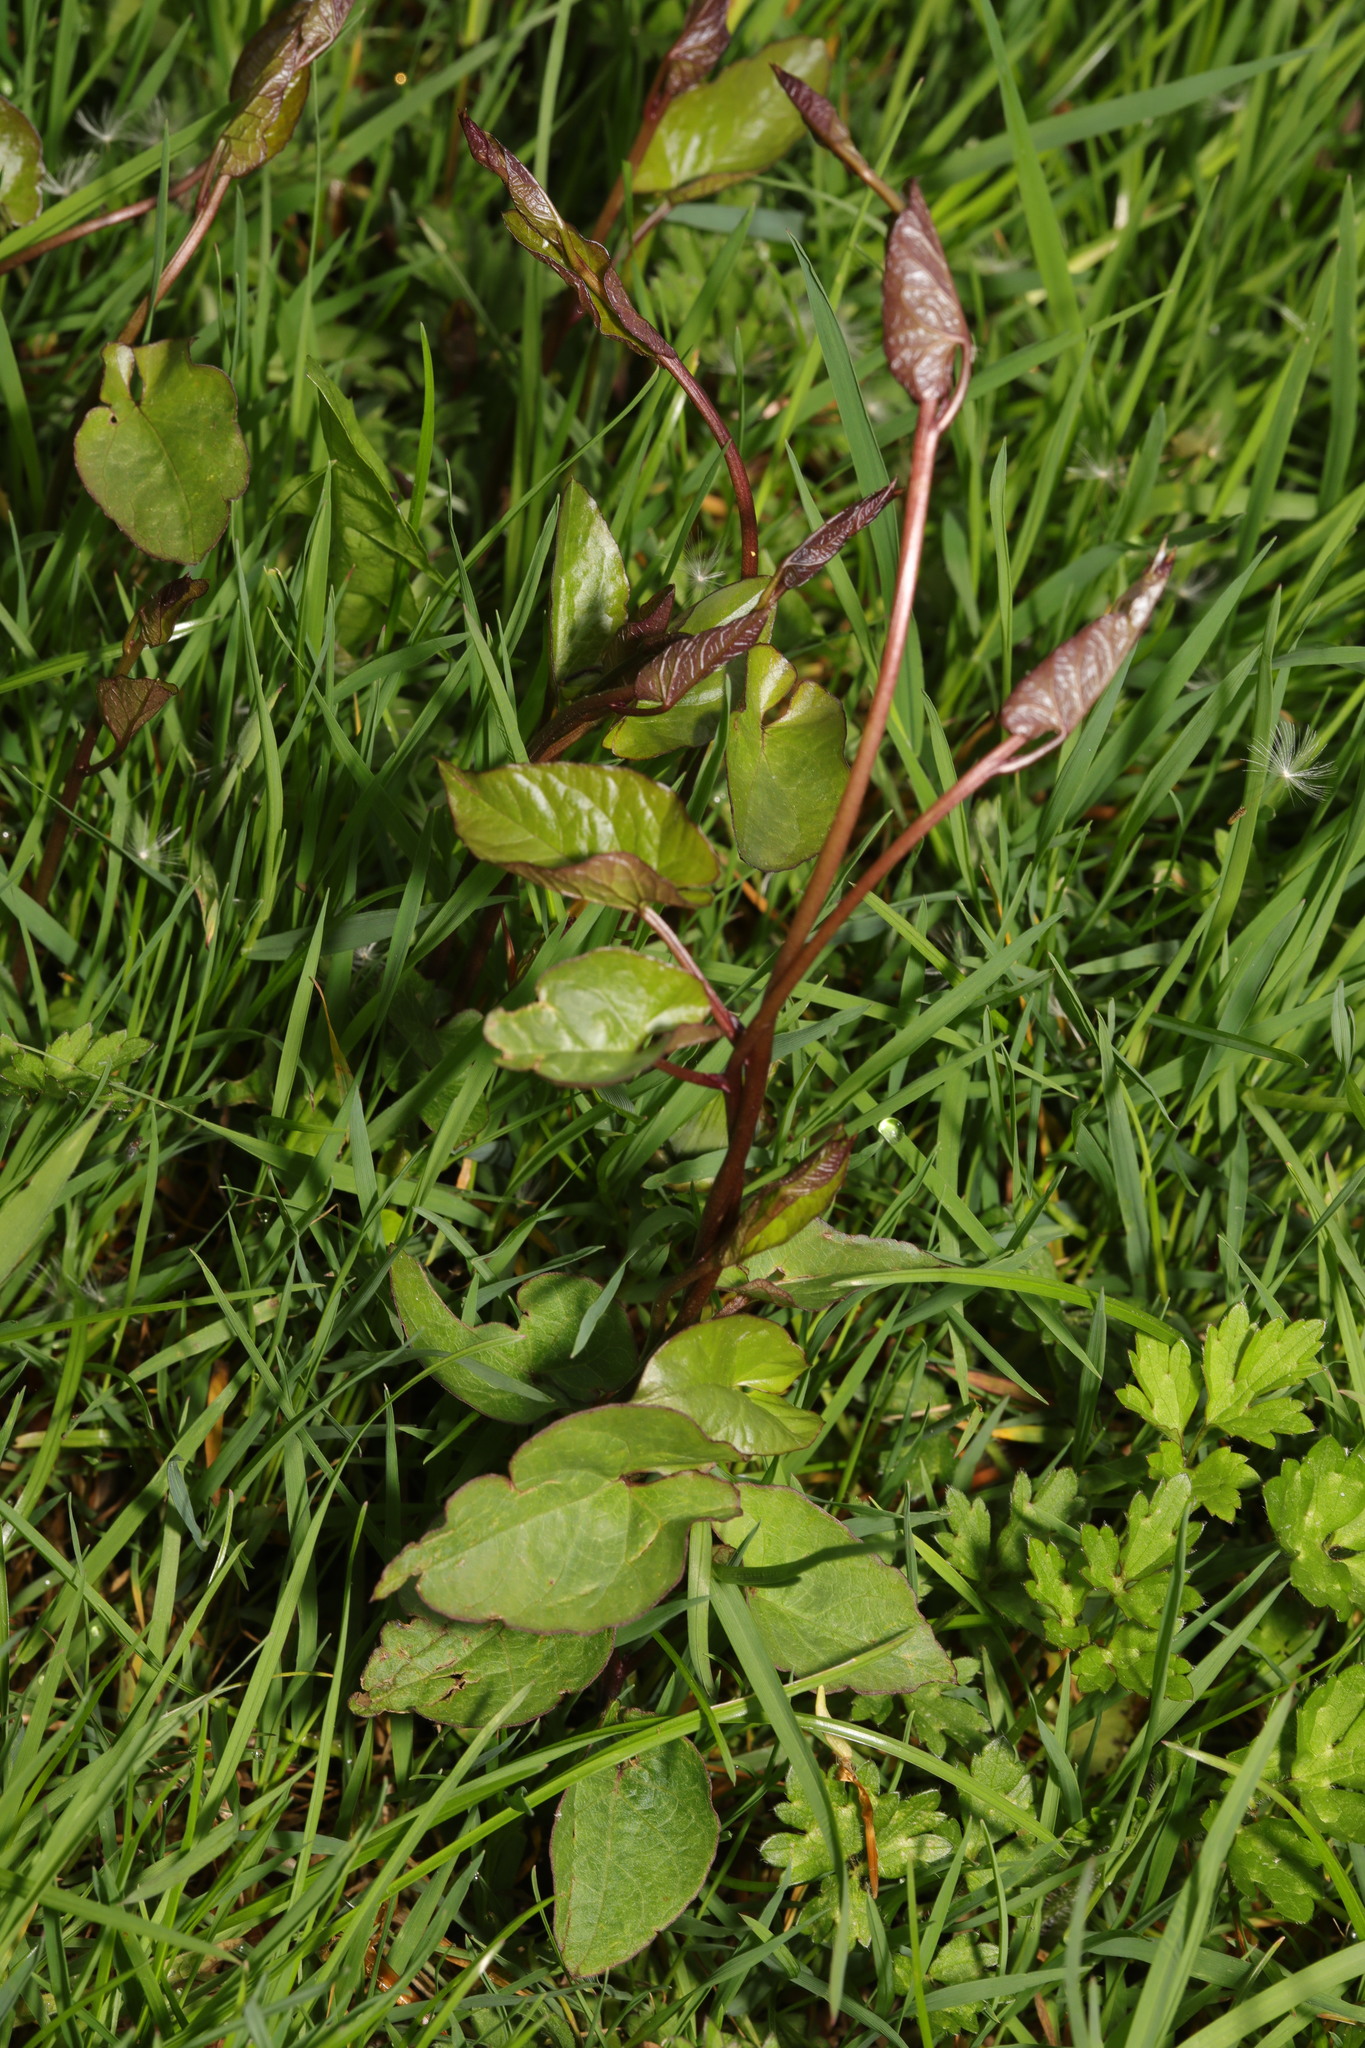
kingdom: Plantae
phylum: Tracheophyta
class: Magnoliopsida
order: Solanales
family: Convolvulaceae
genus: Calystegia
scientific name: Calystegia
